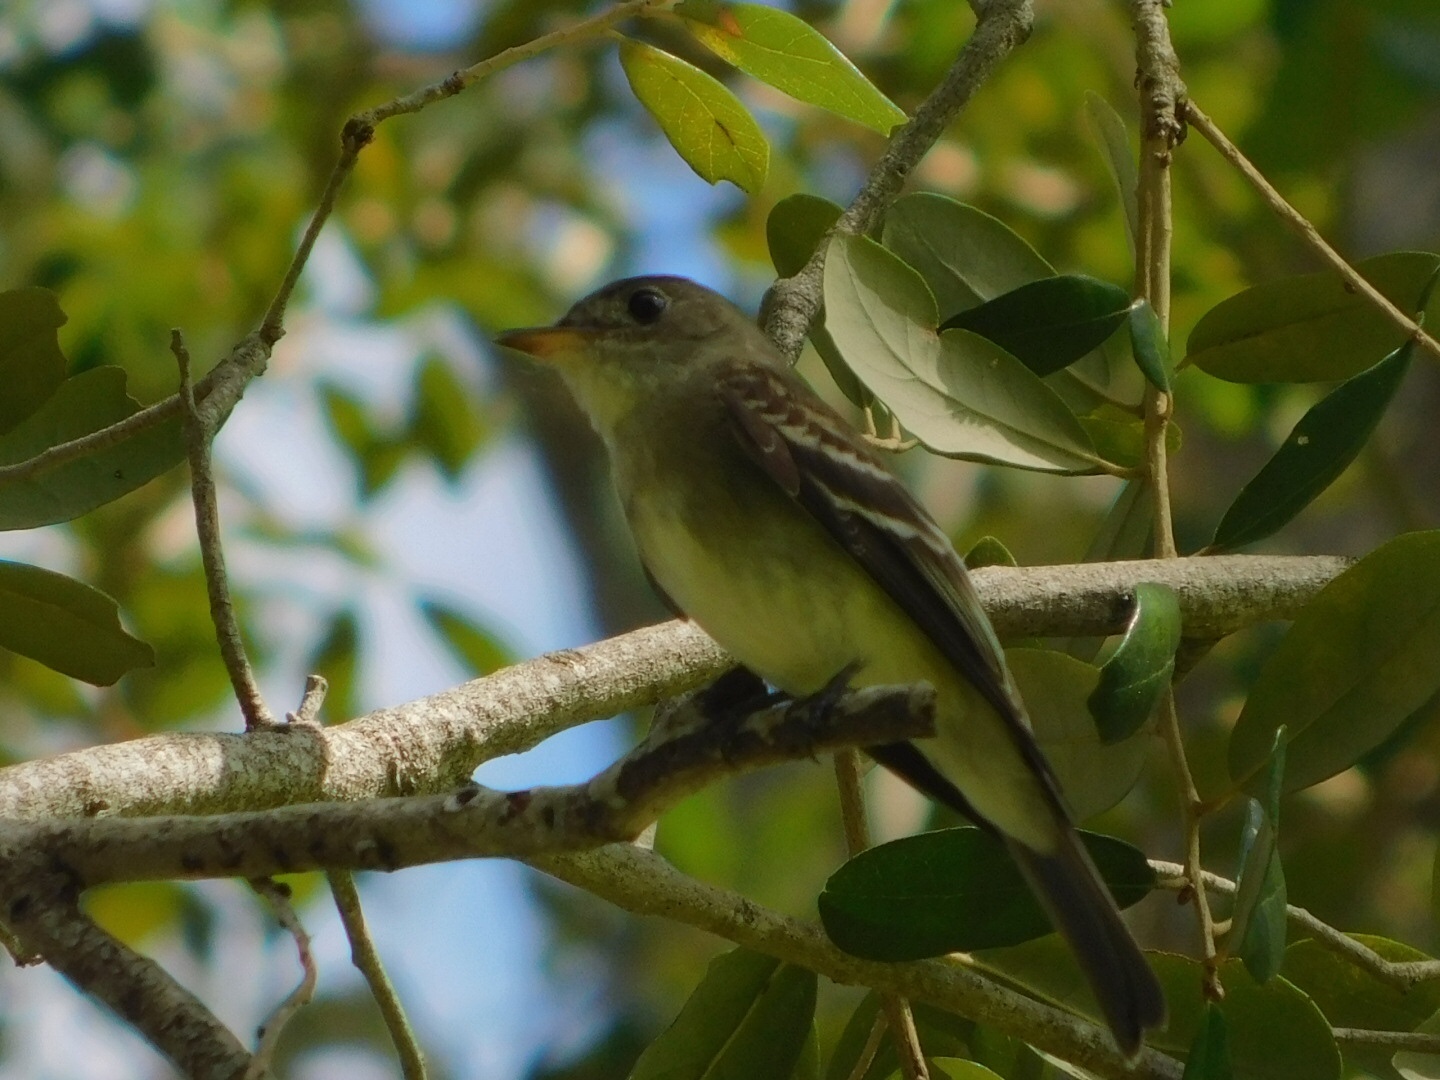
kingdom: Animalia
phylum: Chordata
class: Aves
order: Passeriformes
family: Tyrannidae
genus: Contopus
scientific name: Contopus virens
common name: Eastern wood-pewee
